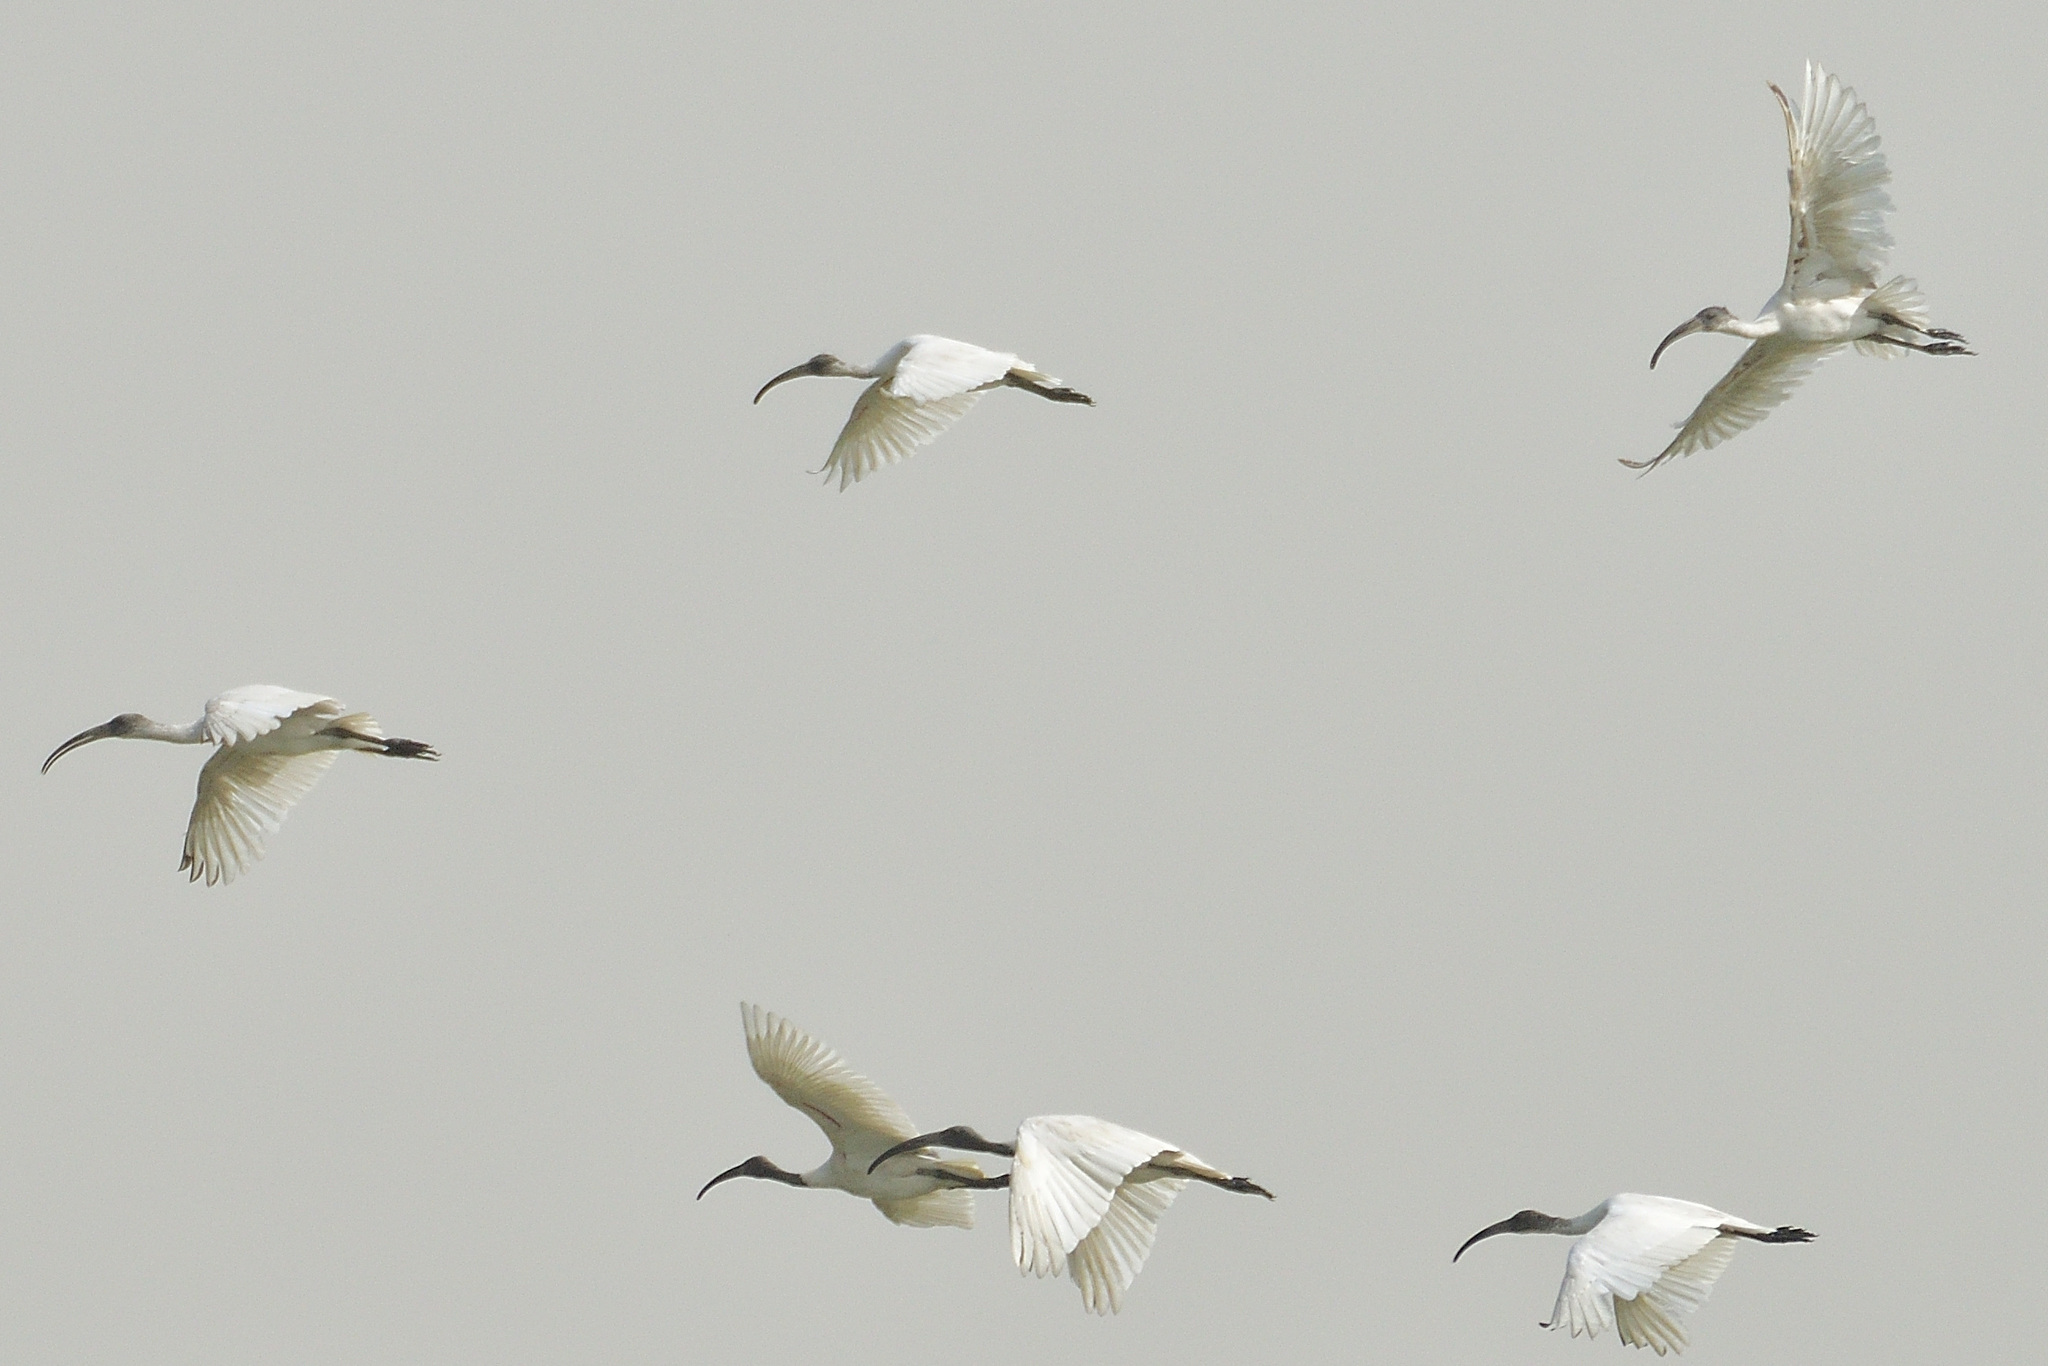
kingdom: Animalia
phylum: Chordata
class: Aves
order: Pelecaniformes
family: Threskiornithidae
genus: Threskiornis
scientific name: Threskiornis melanocephalus
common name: Black-headed ibis
